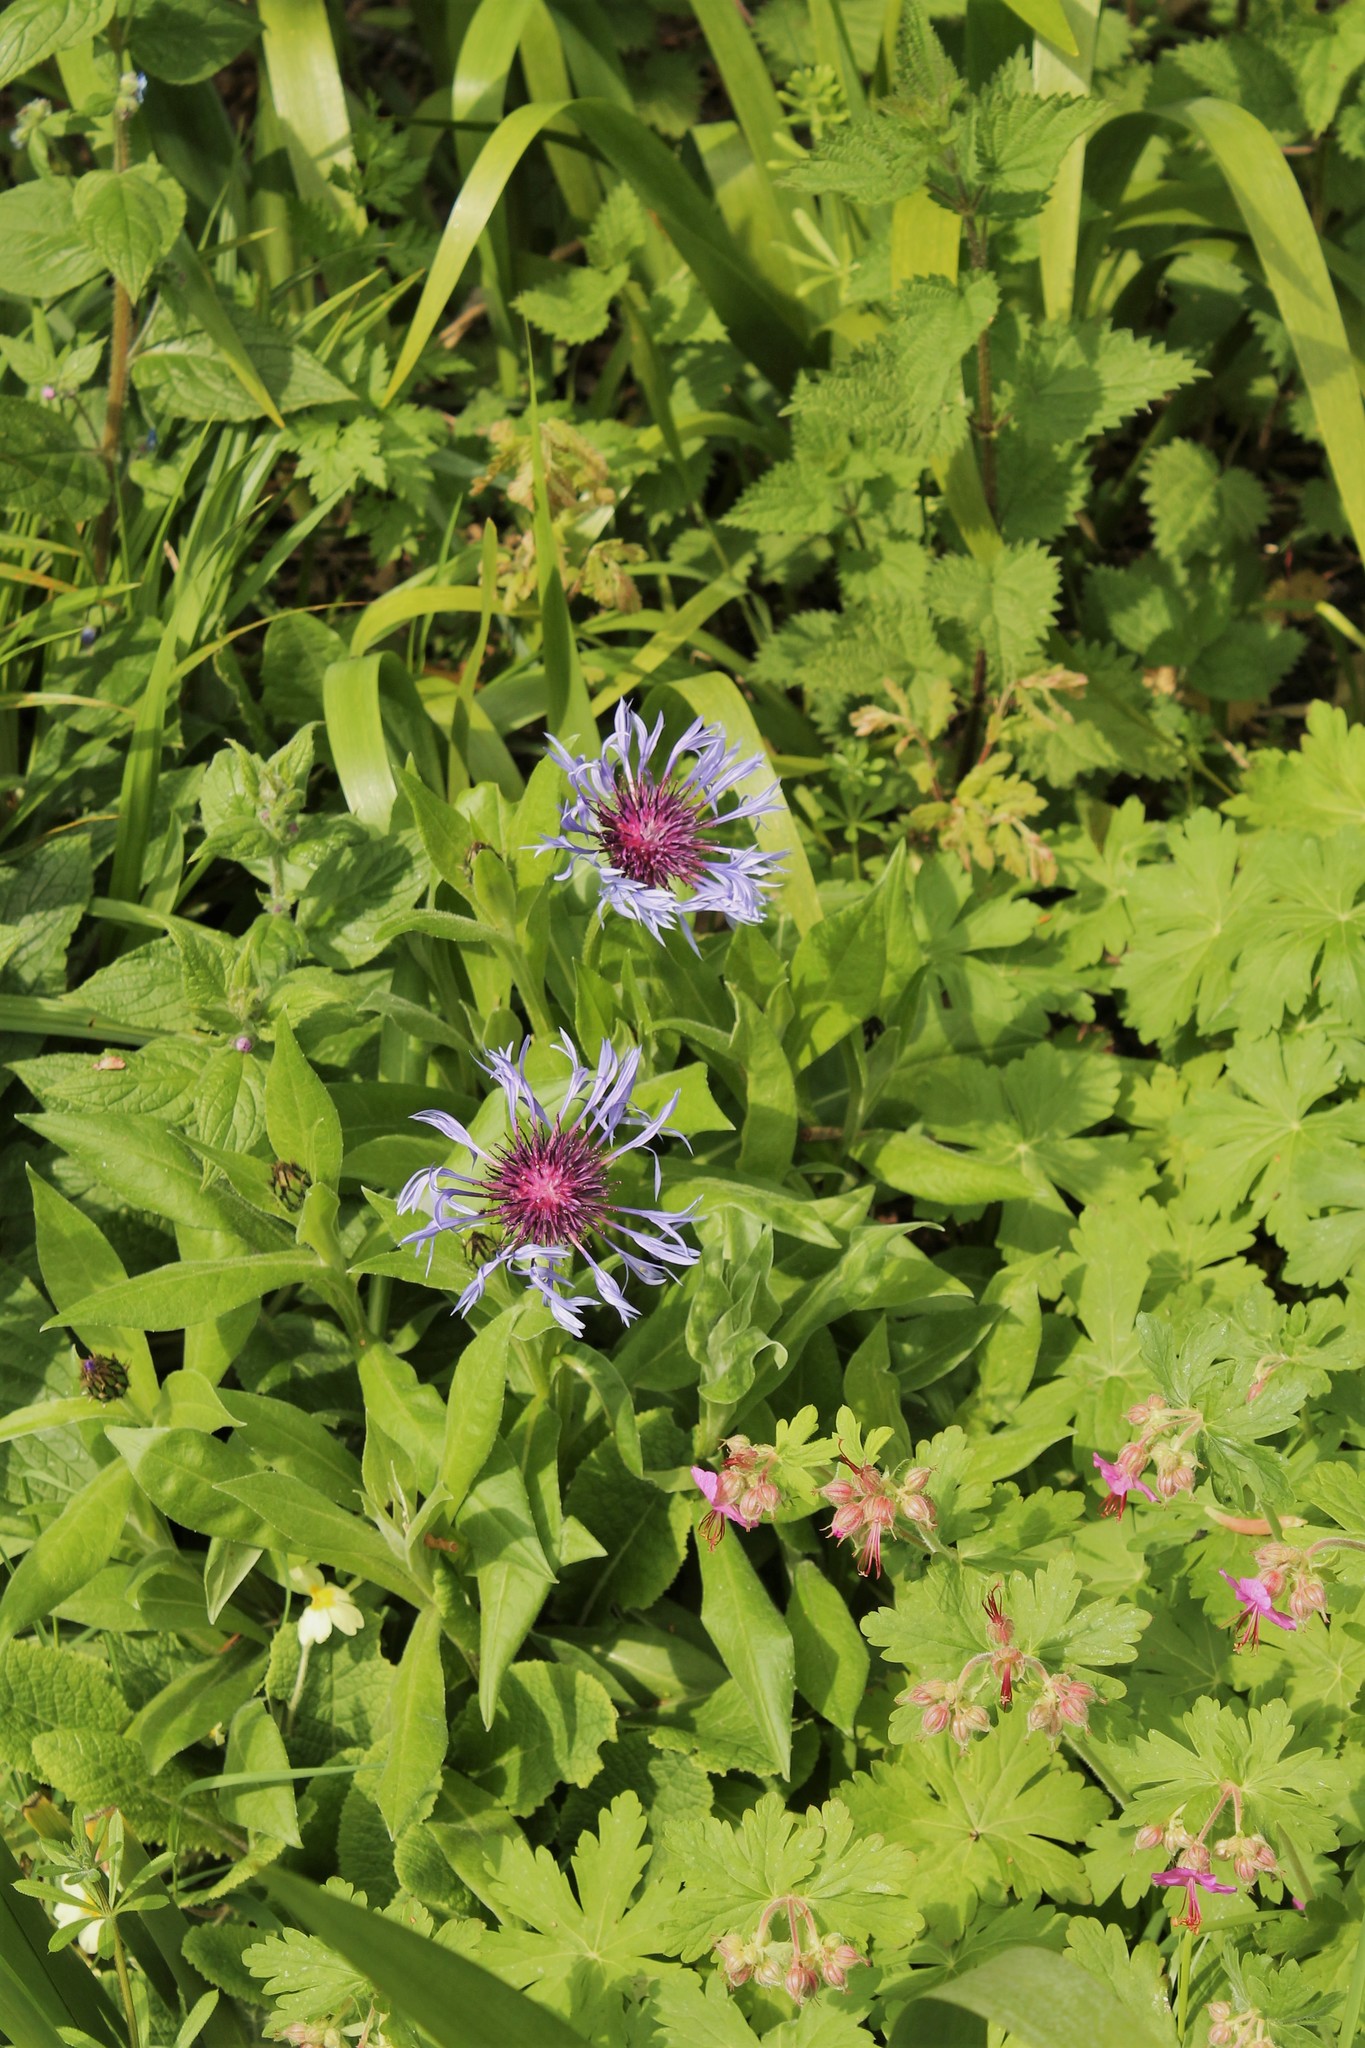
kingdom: Plantae
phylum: Tracheophyta
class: Magnoliopsida
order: Asterales
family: Asteraceae
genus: Centaurea
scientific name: Centaurea montana
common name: Perennial cornflower
